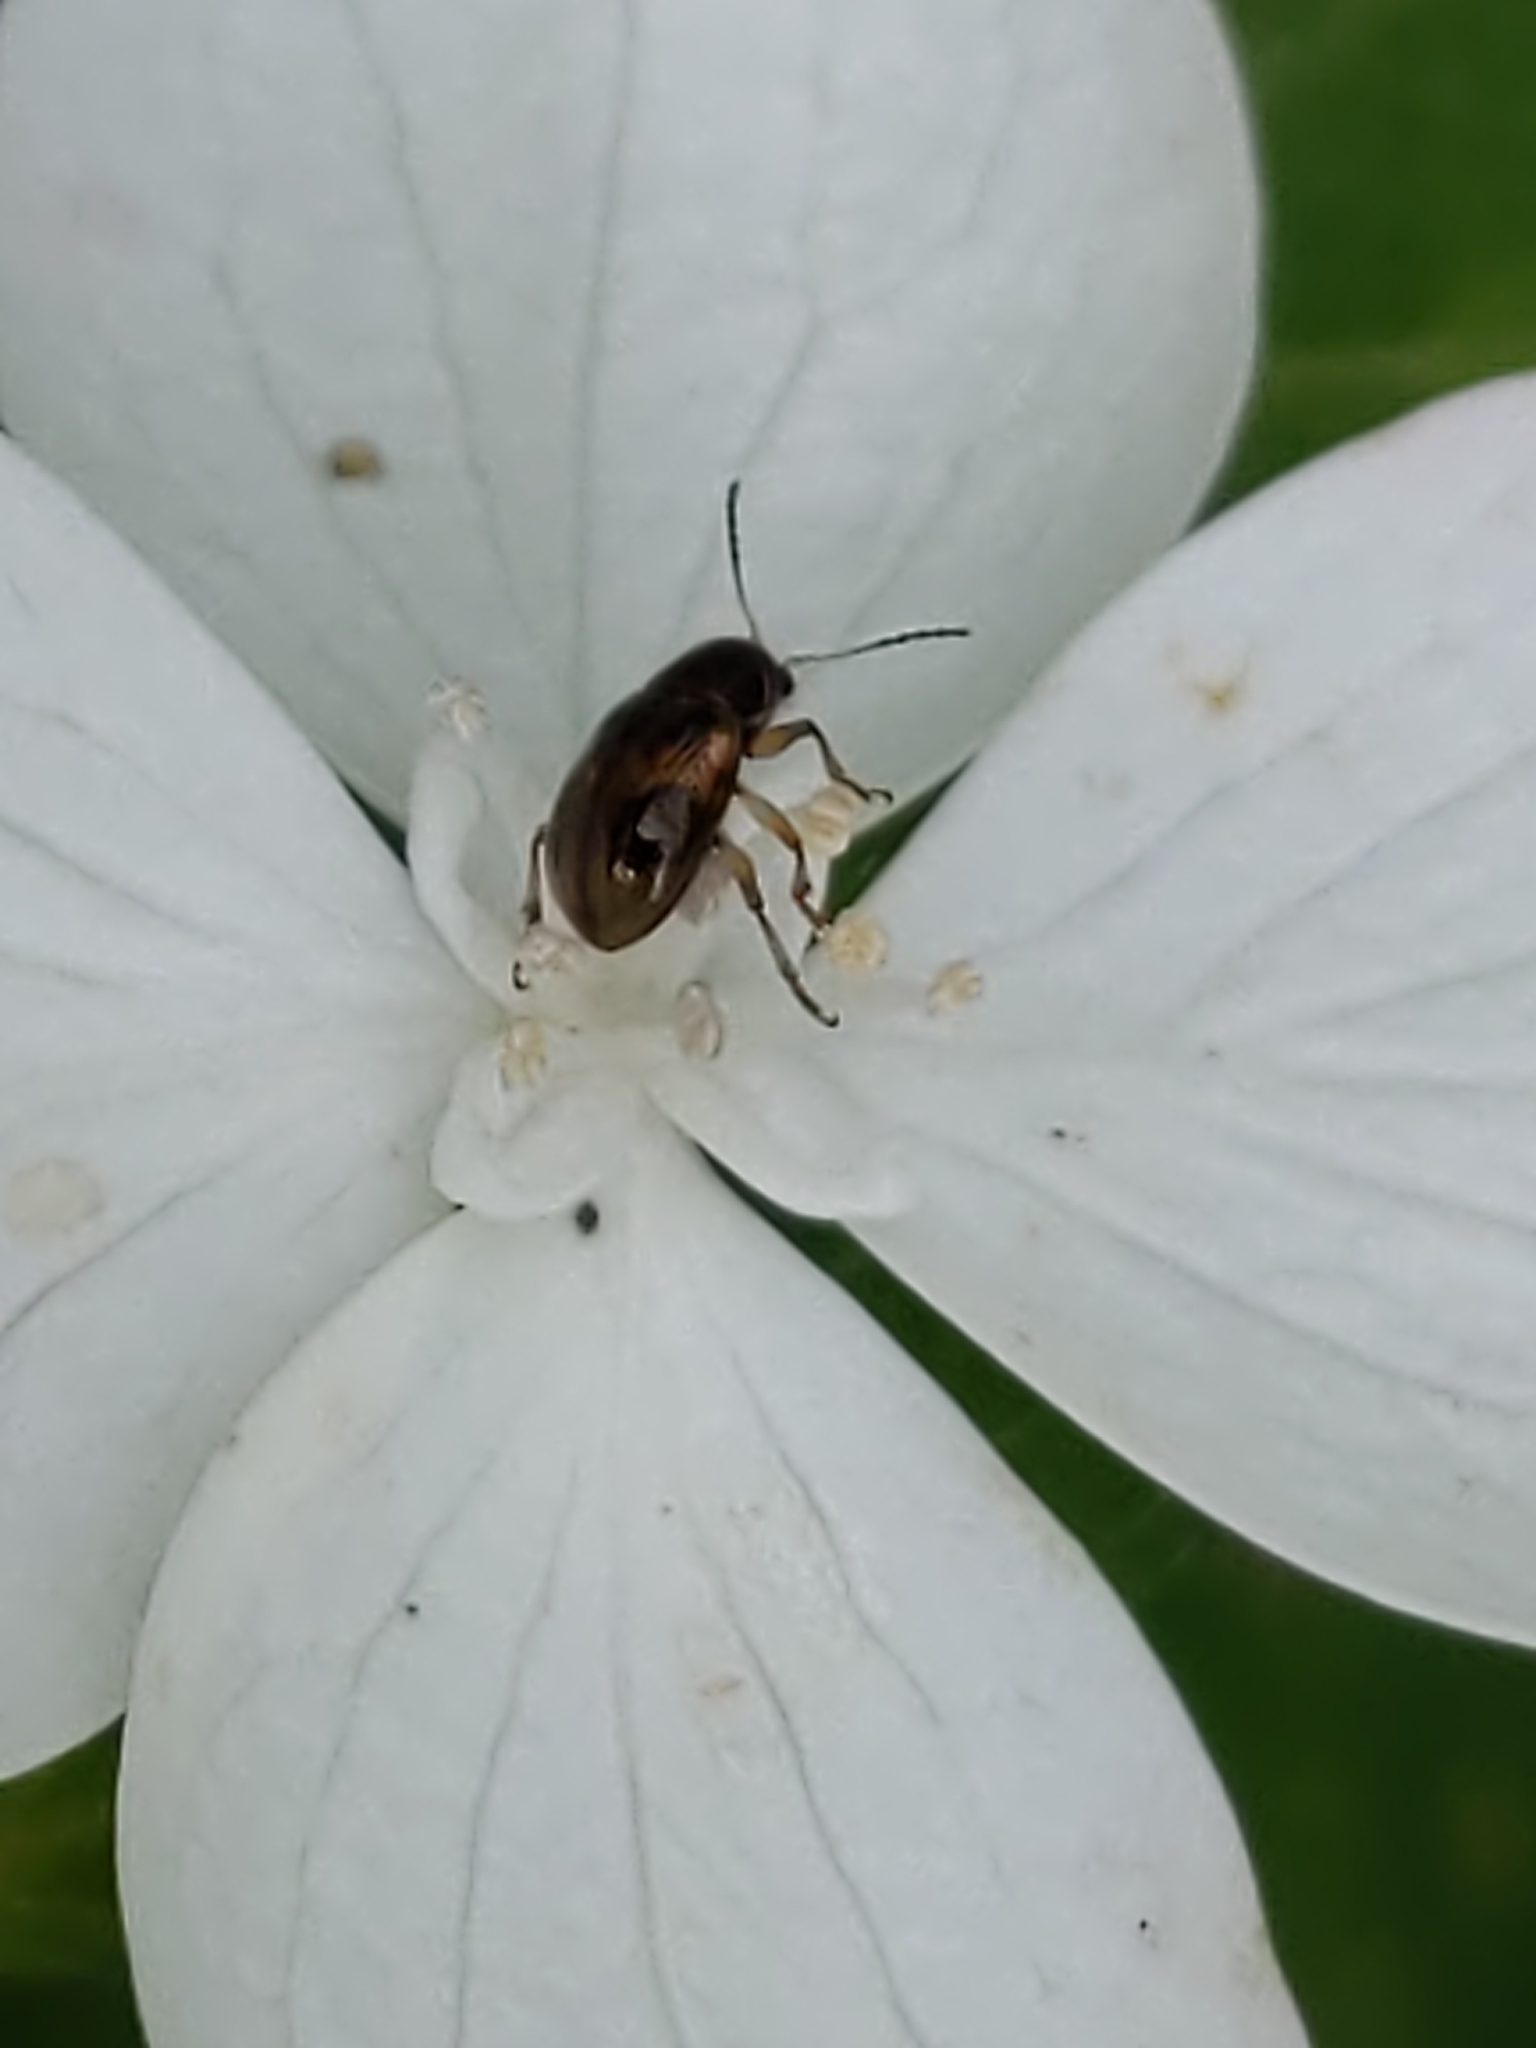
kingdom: Animalia
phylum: Arthropoda
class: Insecta
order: Coleoptera
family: Chrysomelidae
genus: Paria
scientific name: Paria
